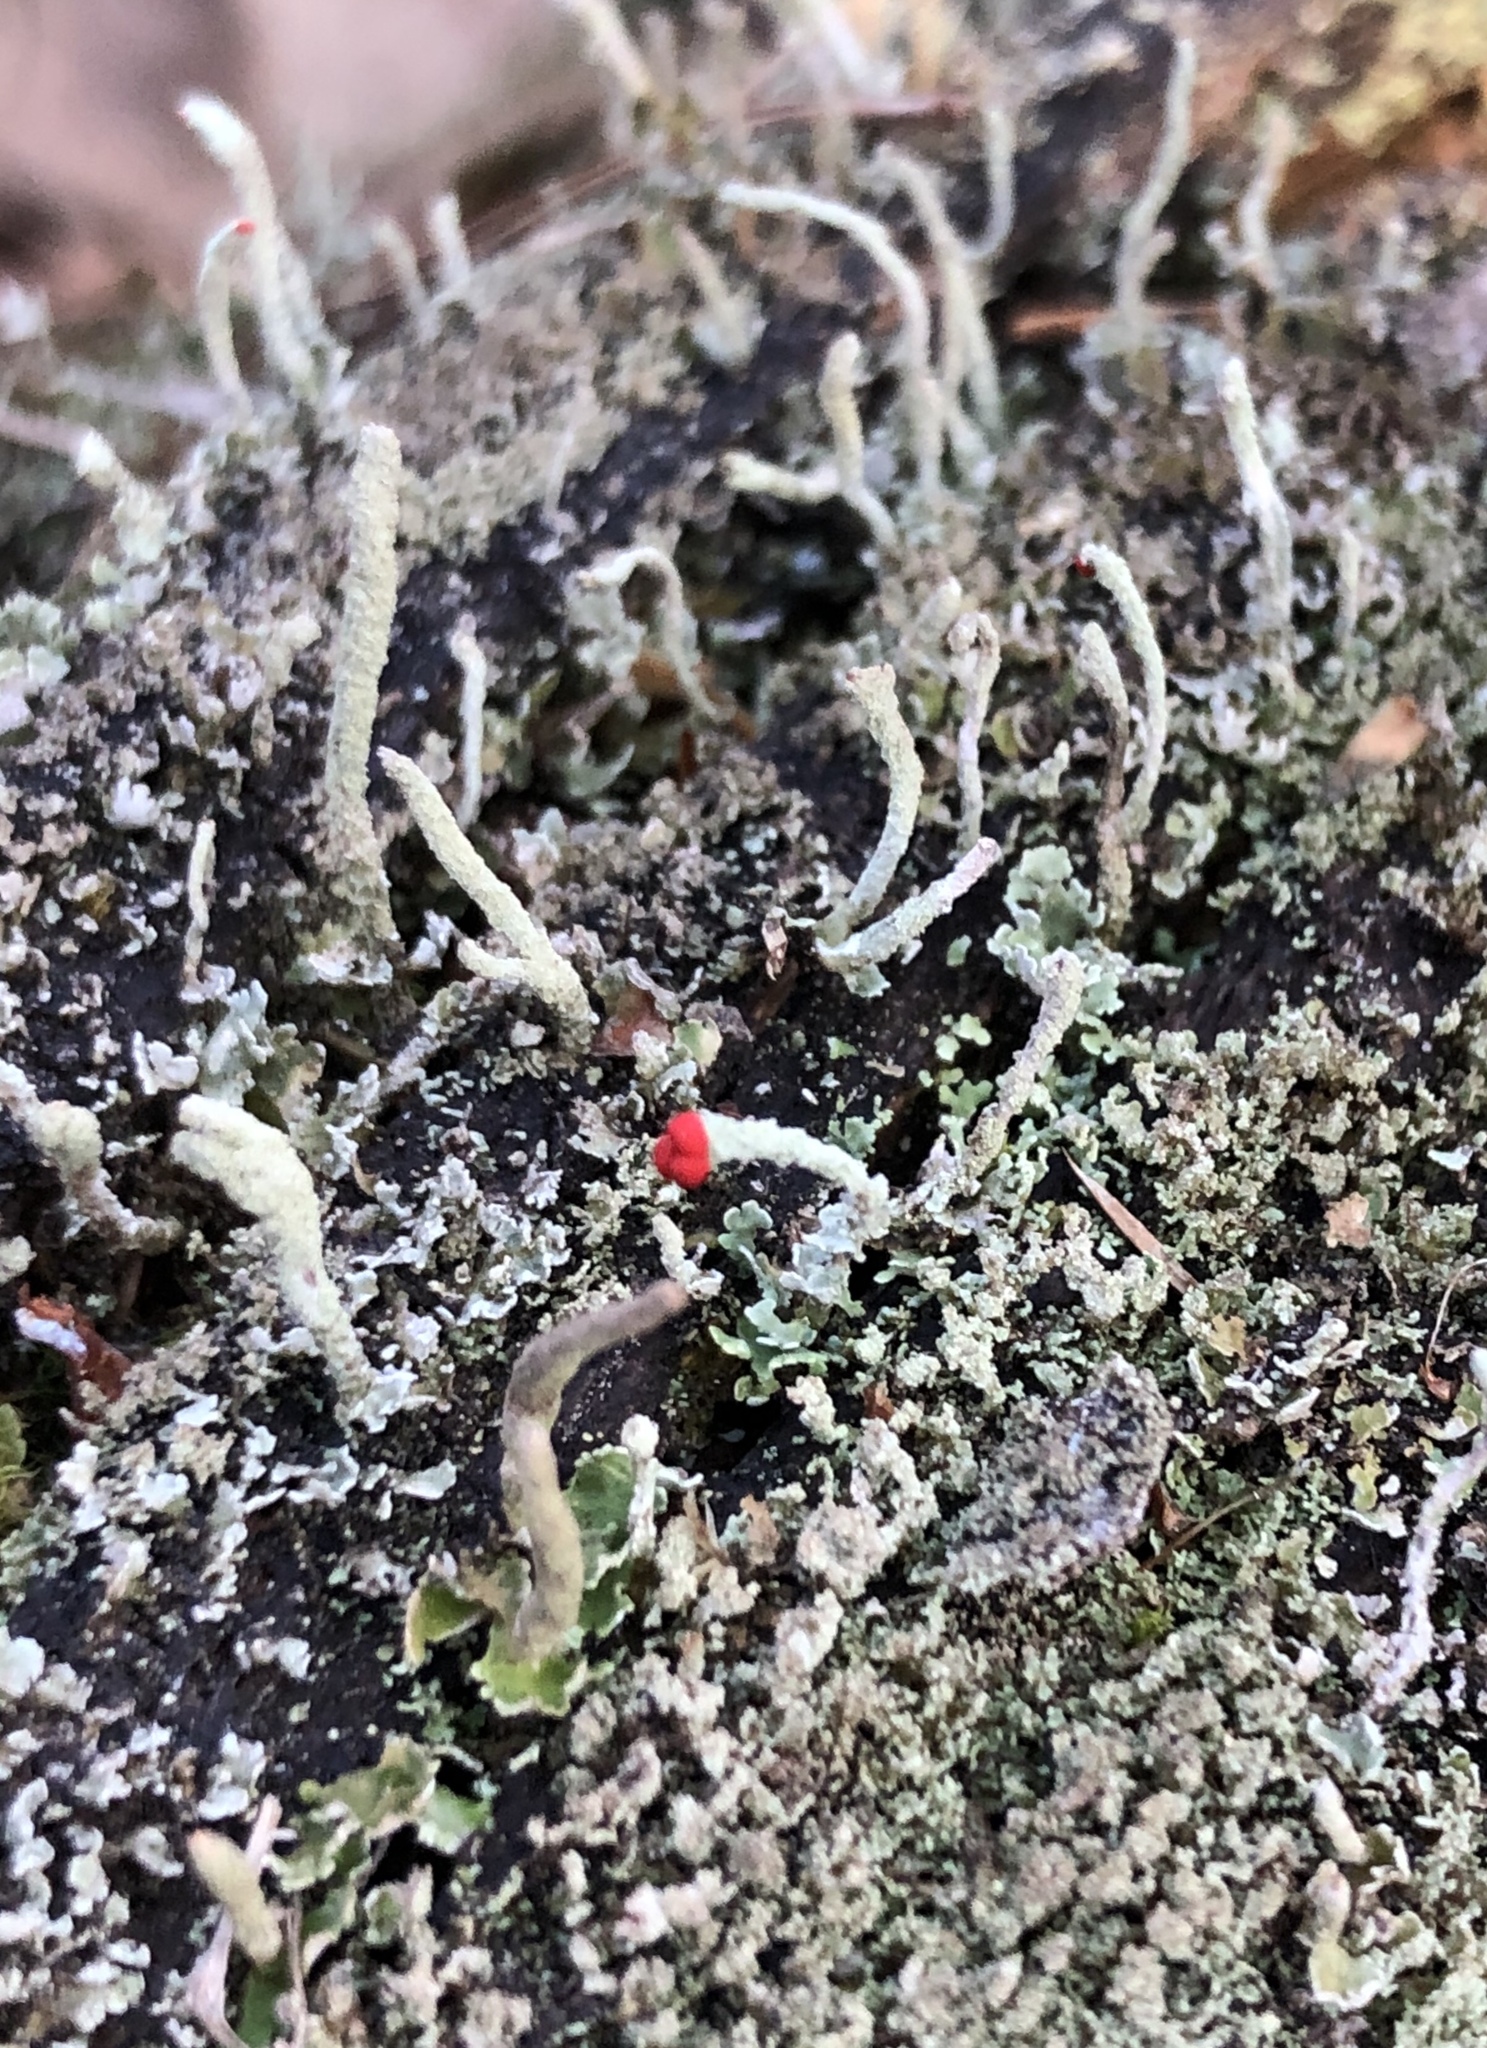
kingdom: Fungi
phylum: Ascomycota
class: Lecanoromycetes
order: Lecanorales
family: Cladoniaceae
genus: Cladonia
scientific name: Cladonia macilenta
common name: Lipstick powderhorn
